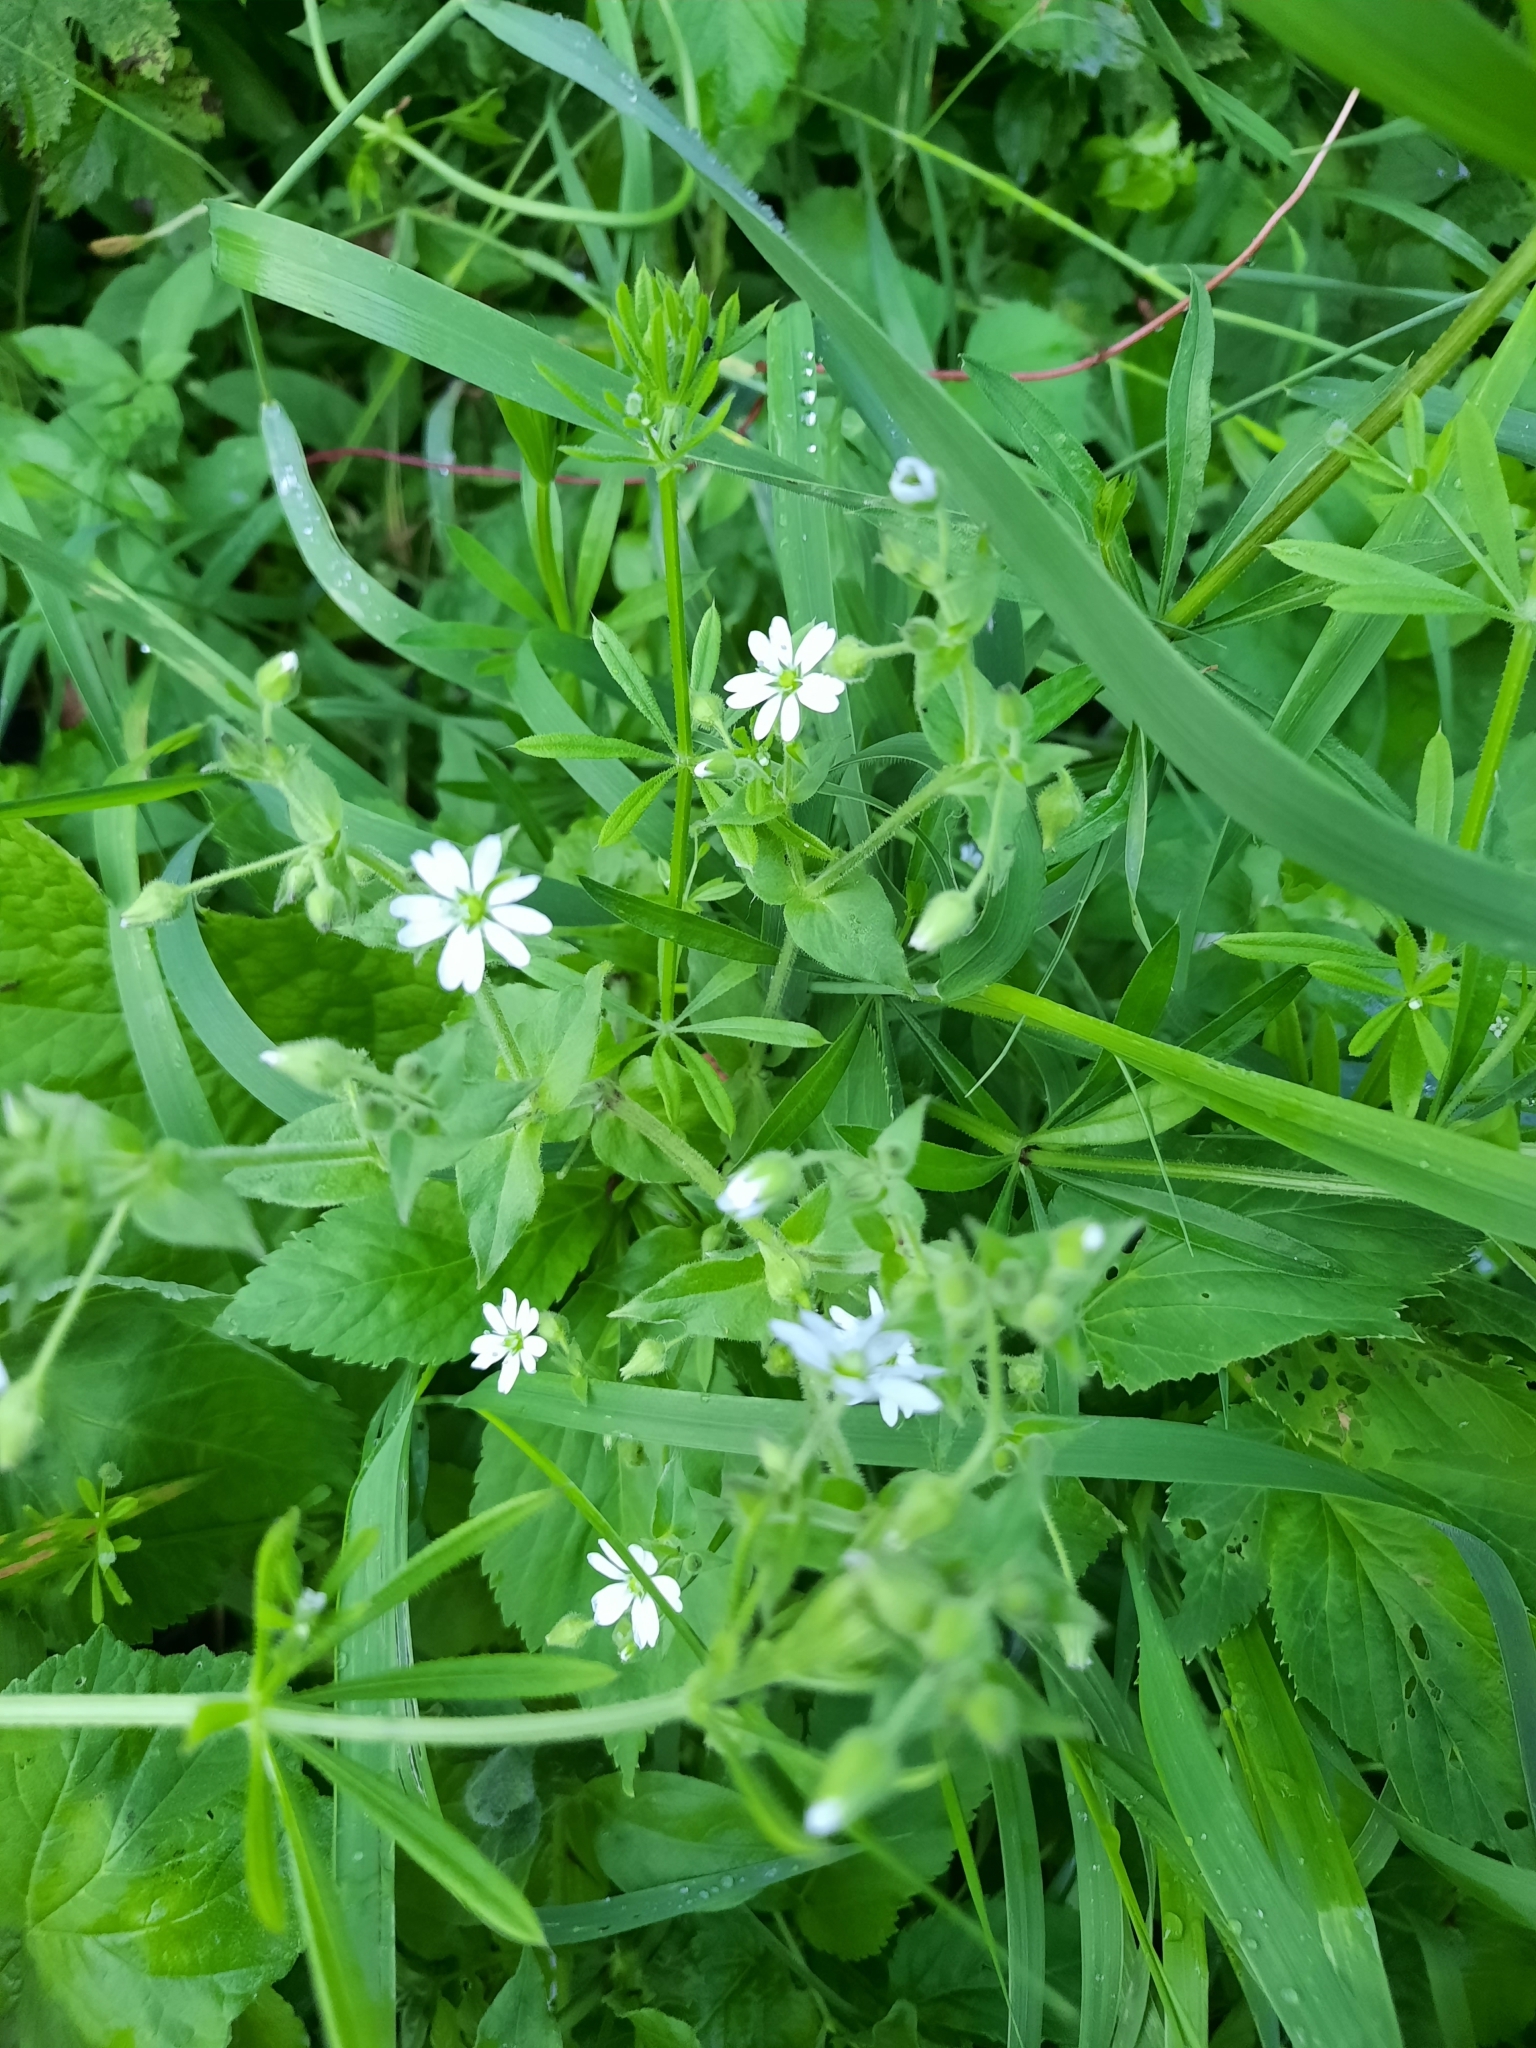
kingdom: Plantae
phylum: Tracheophyta
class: Magnoliopsida
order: Caryophyllales
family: Caryophyllaceae
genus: Stellaria
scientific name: Stellaria aquatica
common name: Water chickweed
